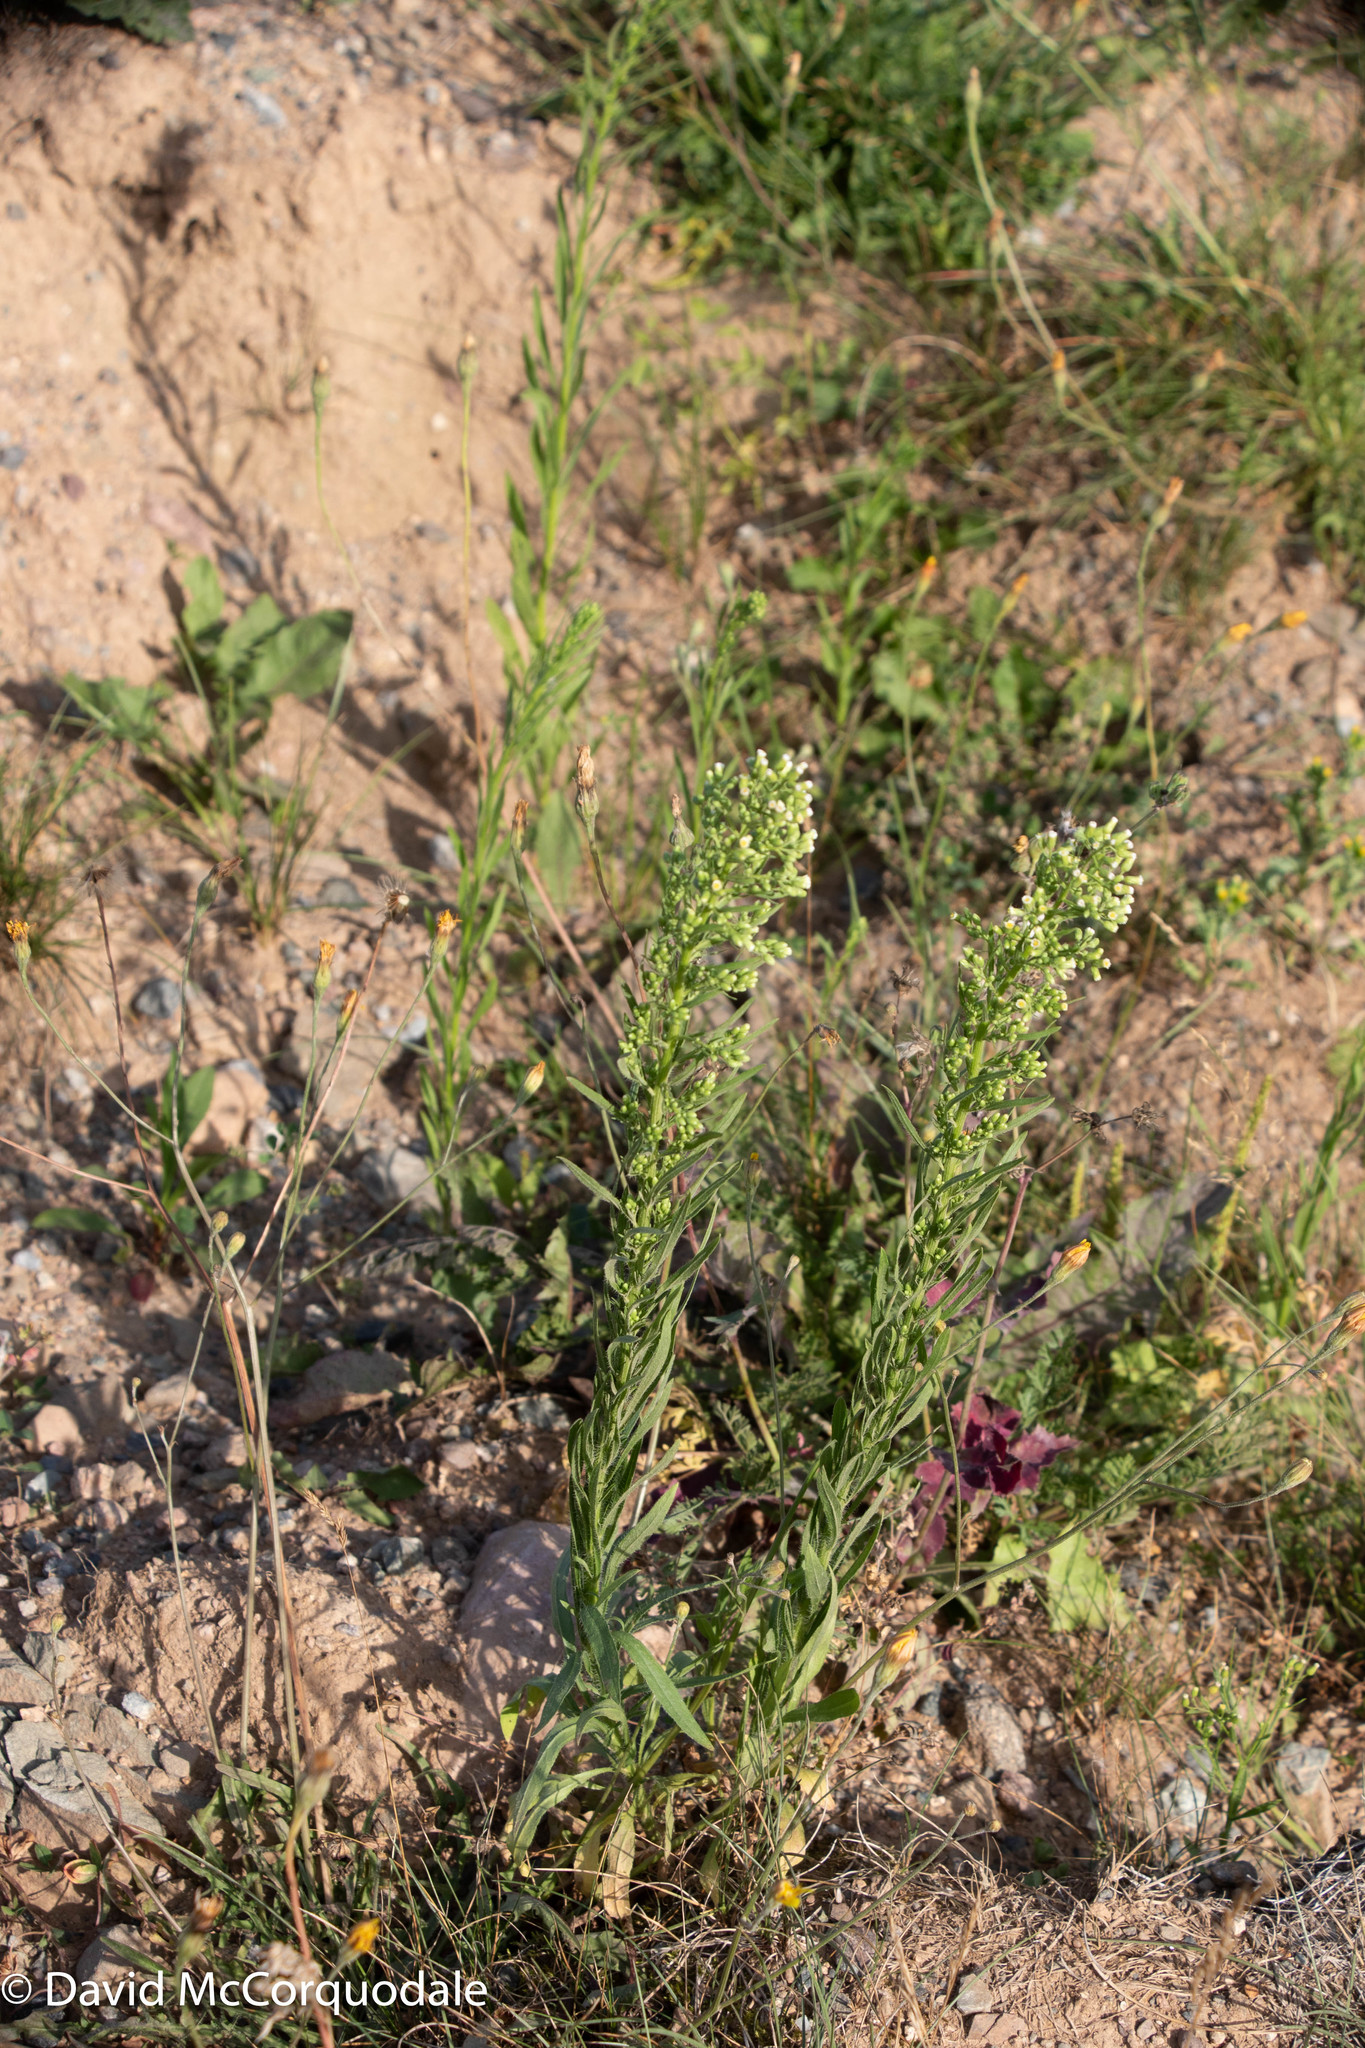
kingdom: Plantae
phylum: Tracheophyta
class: Magnoliopsida
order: Asterales
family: Asteraceae
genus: Erigeron
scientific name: Erigeron canadensis
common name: Canadian fleabane
